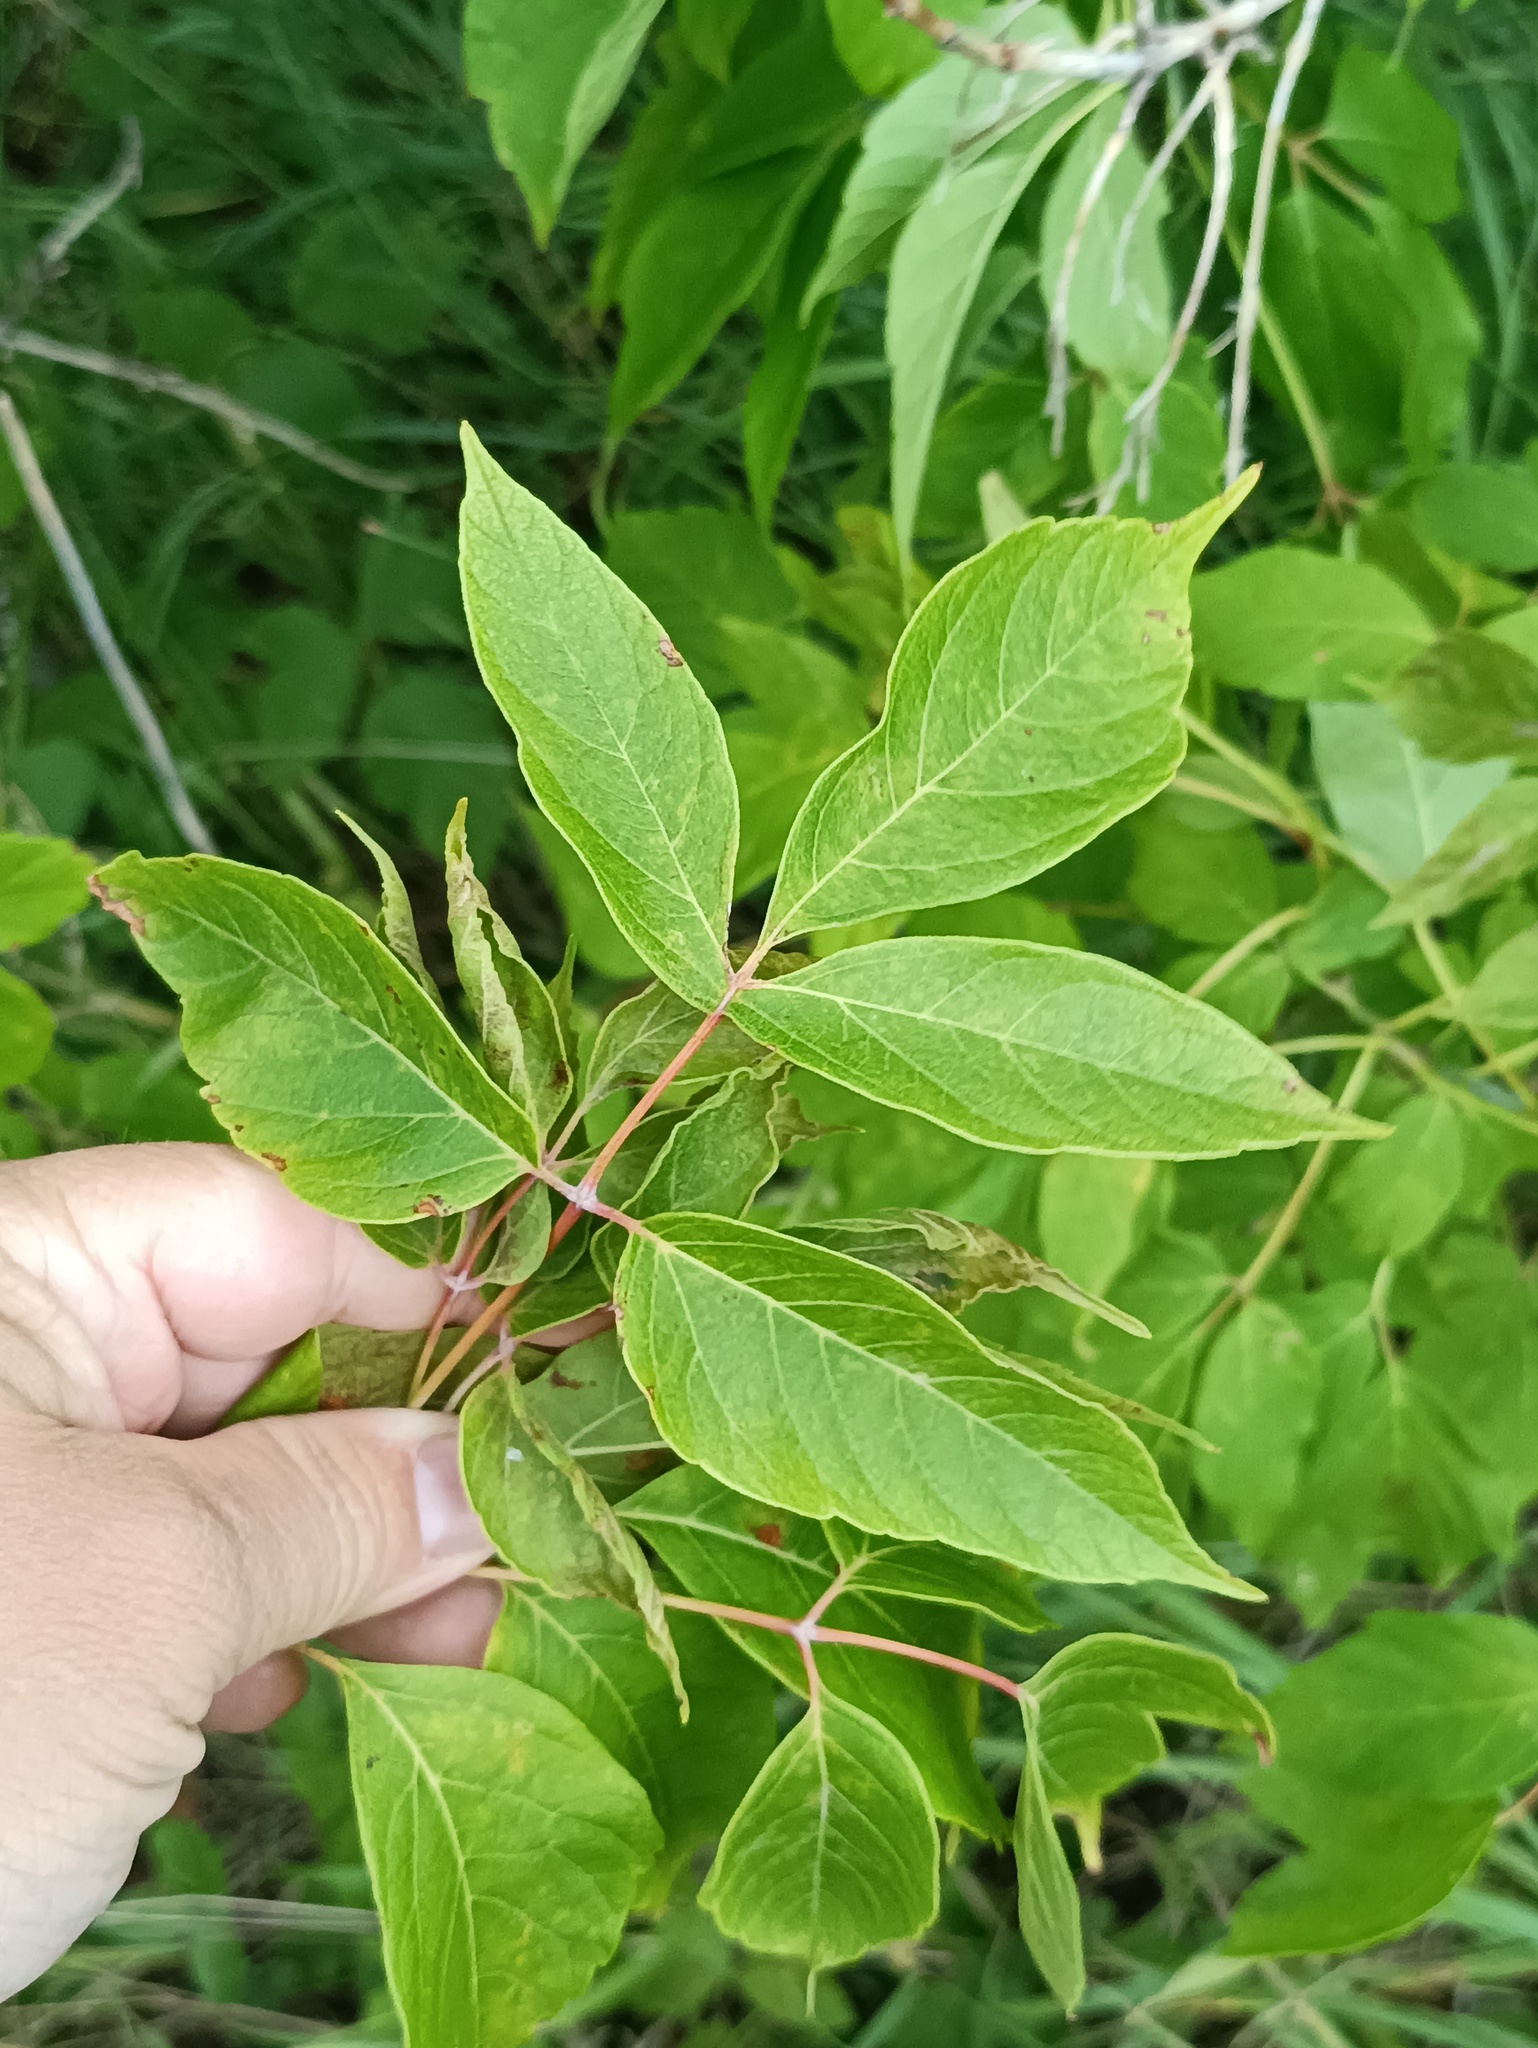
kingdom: Plantae
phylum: Tracheophyta
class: Magnoliopsida
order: Sapindales
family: Sapindaceae
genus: Acer
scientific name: Acer negundo
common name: Ashleaf maple
